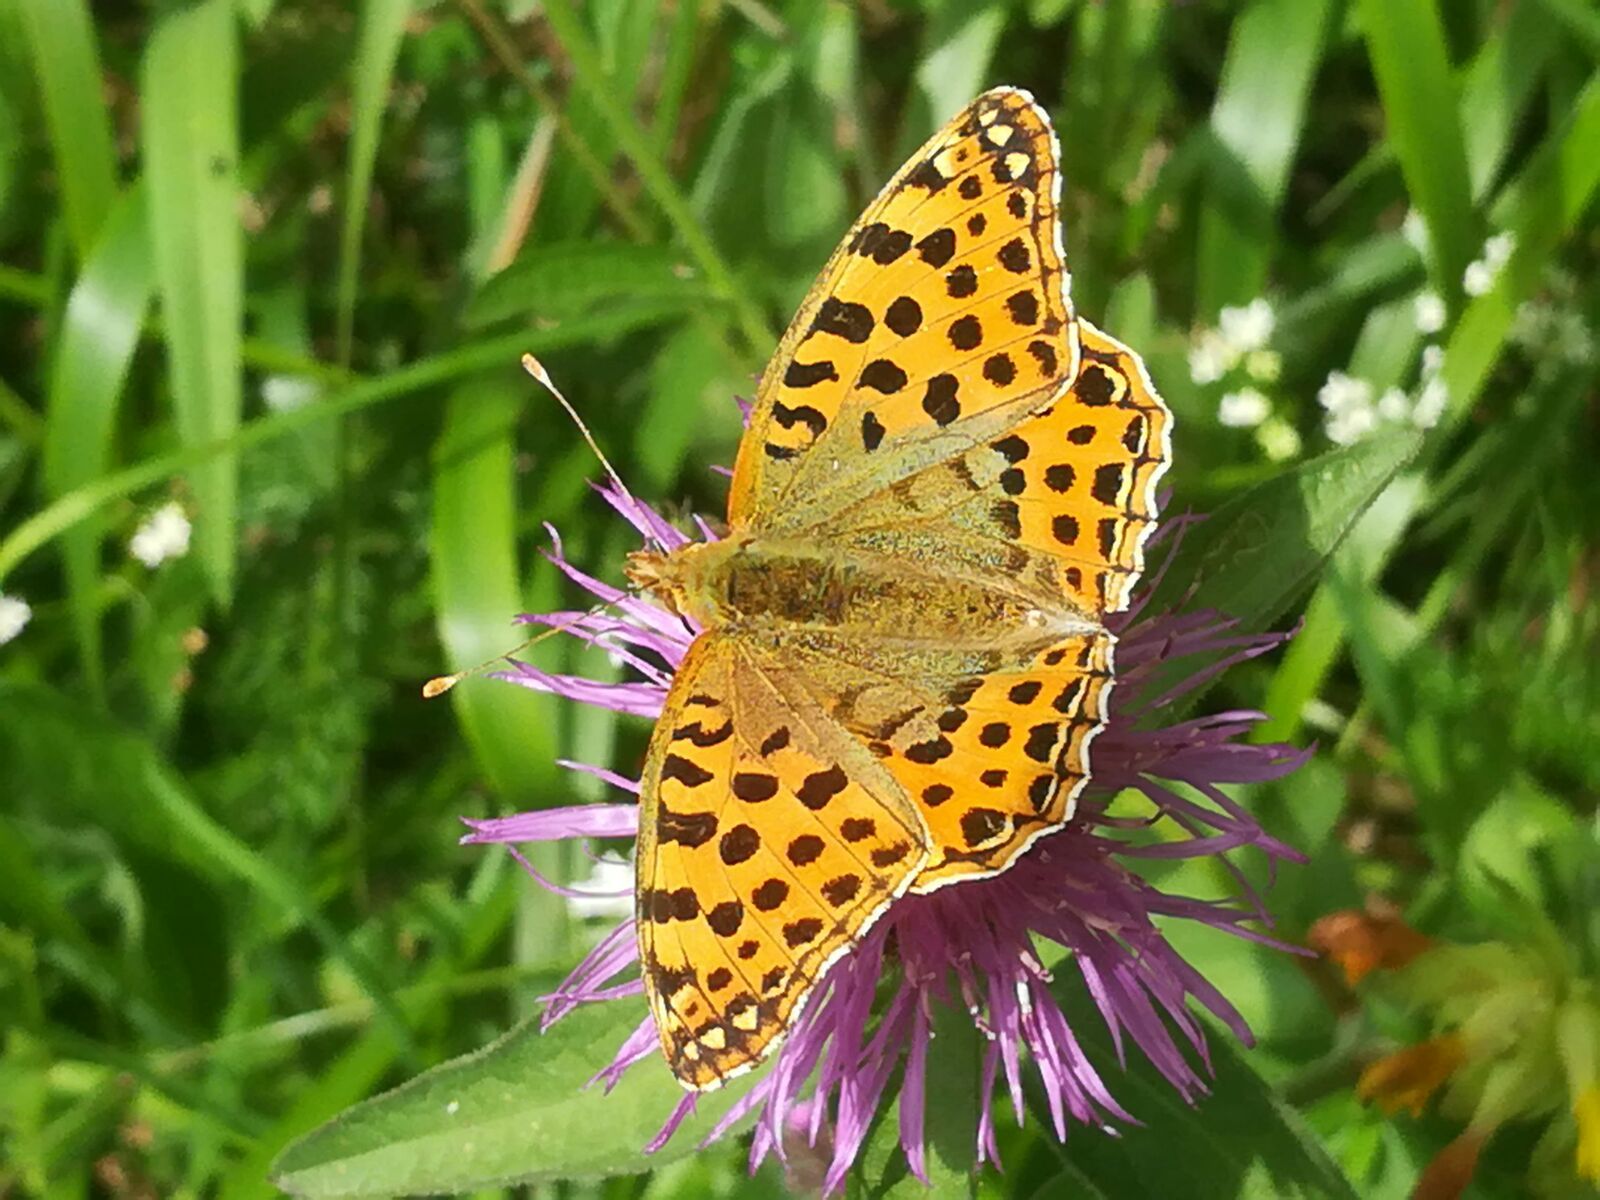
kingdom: Animalia
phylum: Arthropoda
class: Insecta
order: Lepidoptera
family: Nymphalidae
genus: Issoria
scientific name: Issoria lathonia
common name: Queen of spain fritillary
